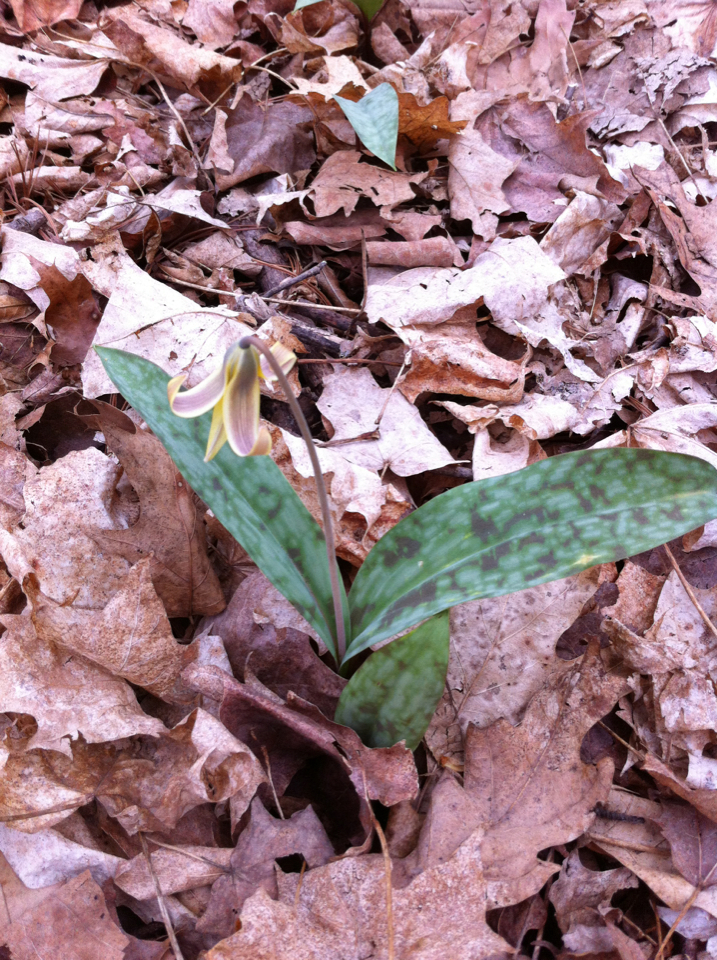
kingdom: Plantae
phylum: Tracheophyta
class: Liliopsida
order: Liliales
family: Liliaceae
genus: Erythronium
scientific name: Erythronium americanum
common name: Yellow adder's-tongue
